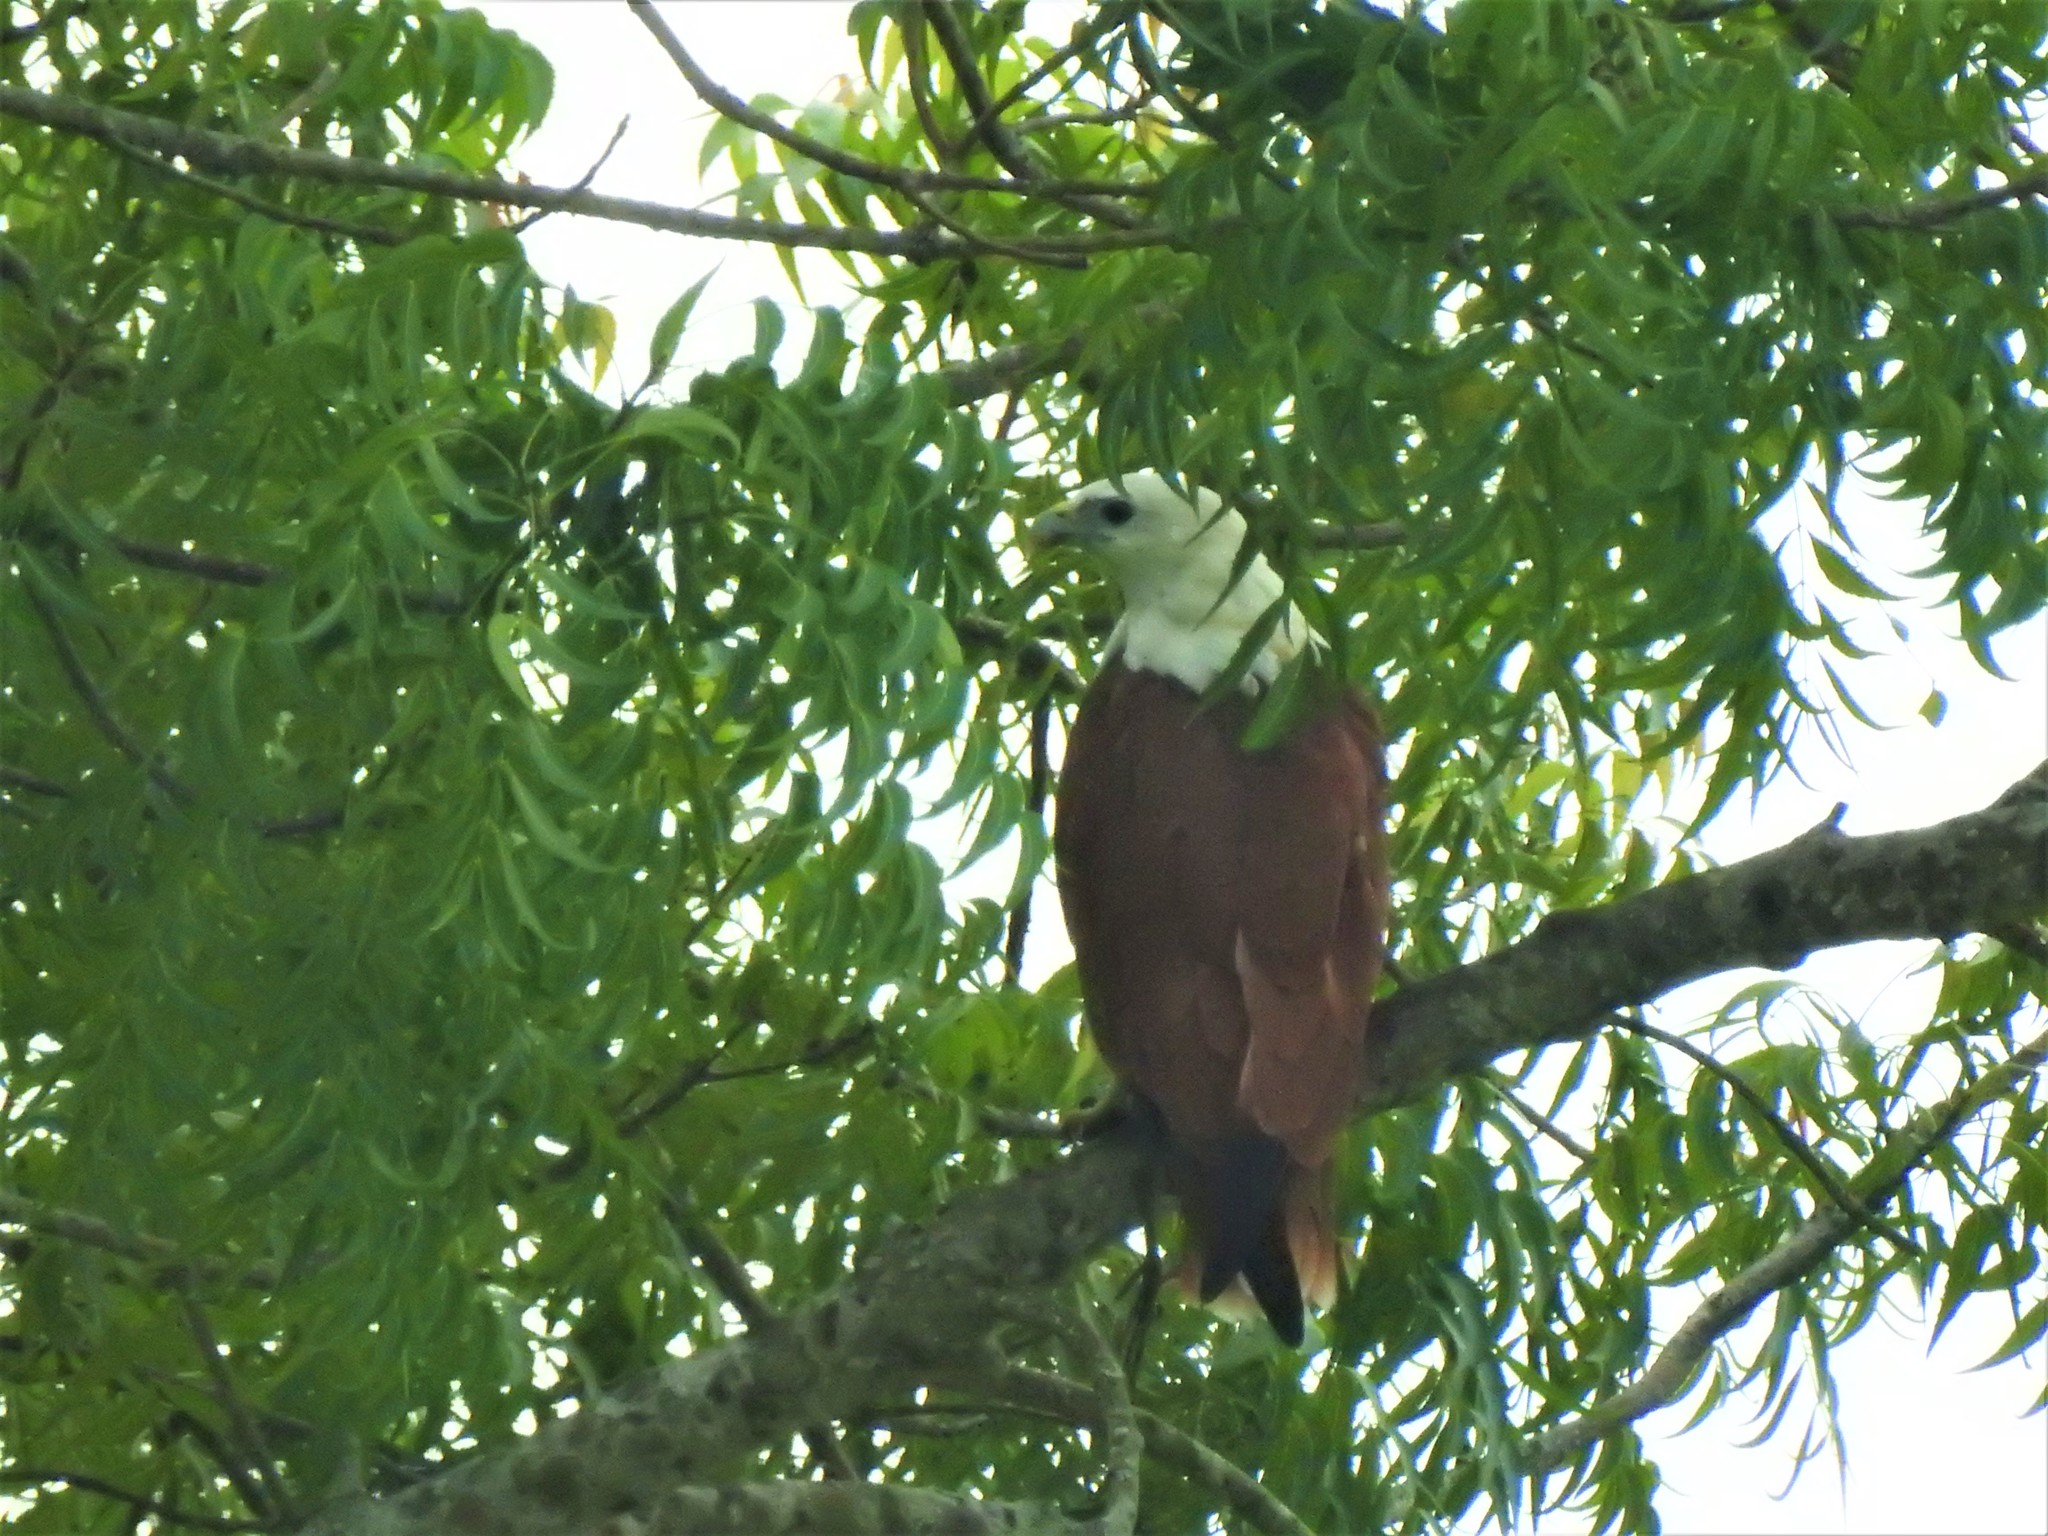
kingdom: Animalia
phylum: Chordata
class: Aves
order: Accipitriformes
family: Accipitridae
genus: Haliastur
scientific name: Haliastur indus
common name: Brahminy kite
